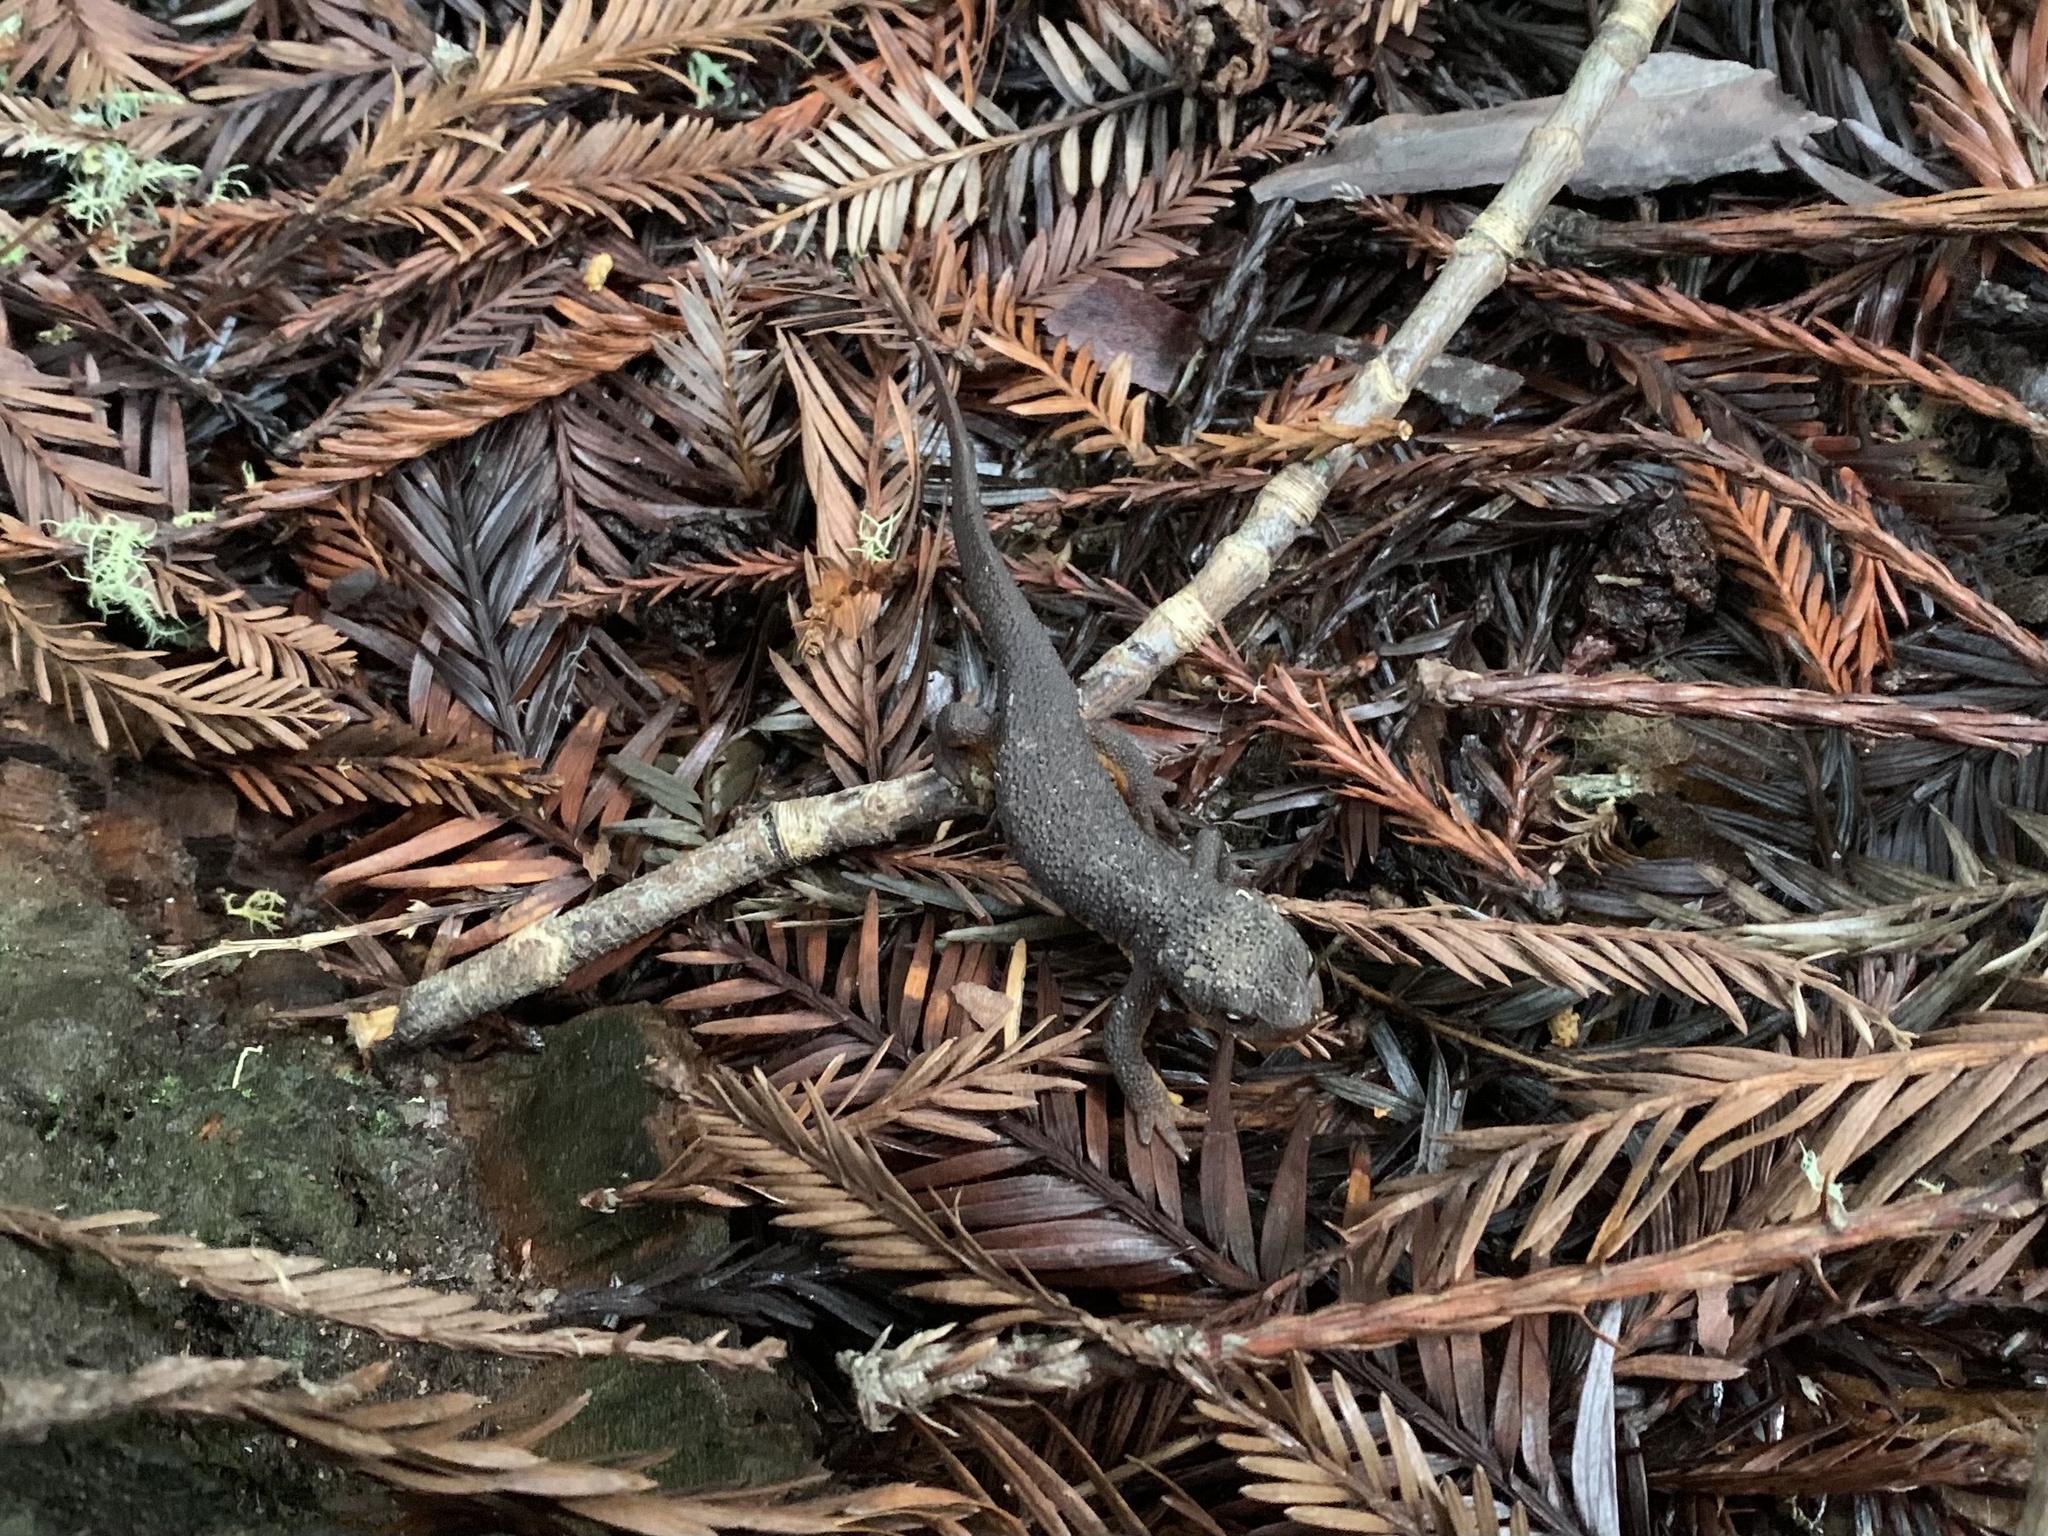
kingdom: Animalia
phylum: Chordata
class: Amphibia
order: Caudata
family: Salamandridae
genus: Taricha
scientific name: Taricha granulosa
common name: Roughskin newt
